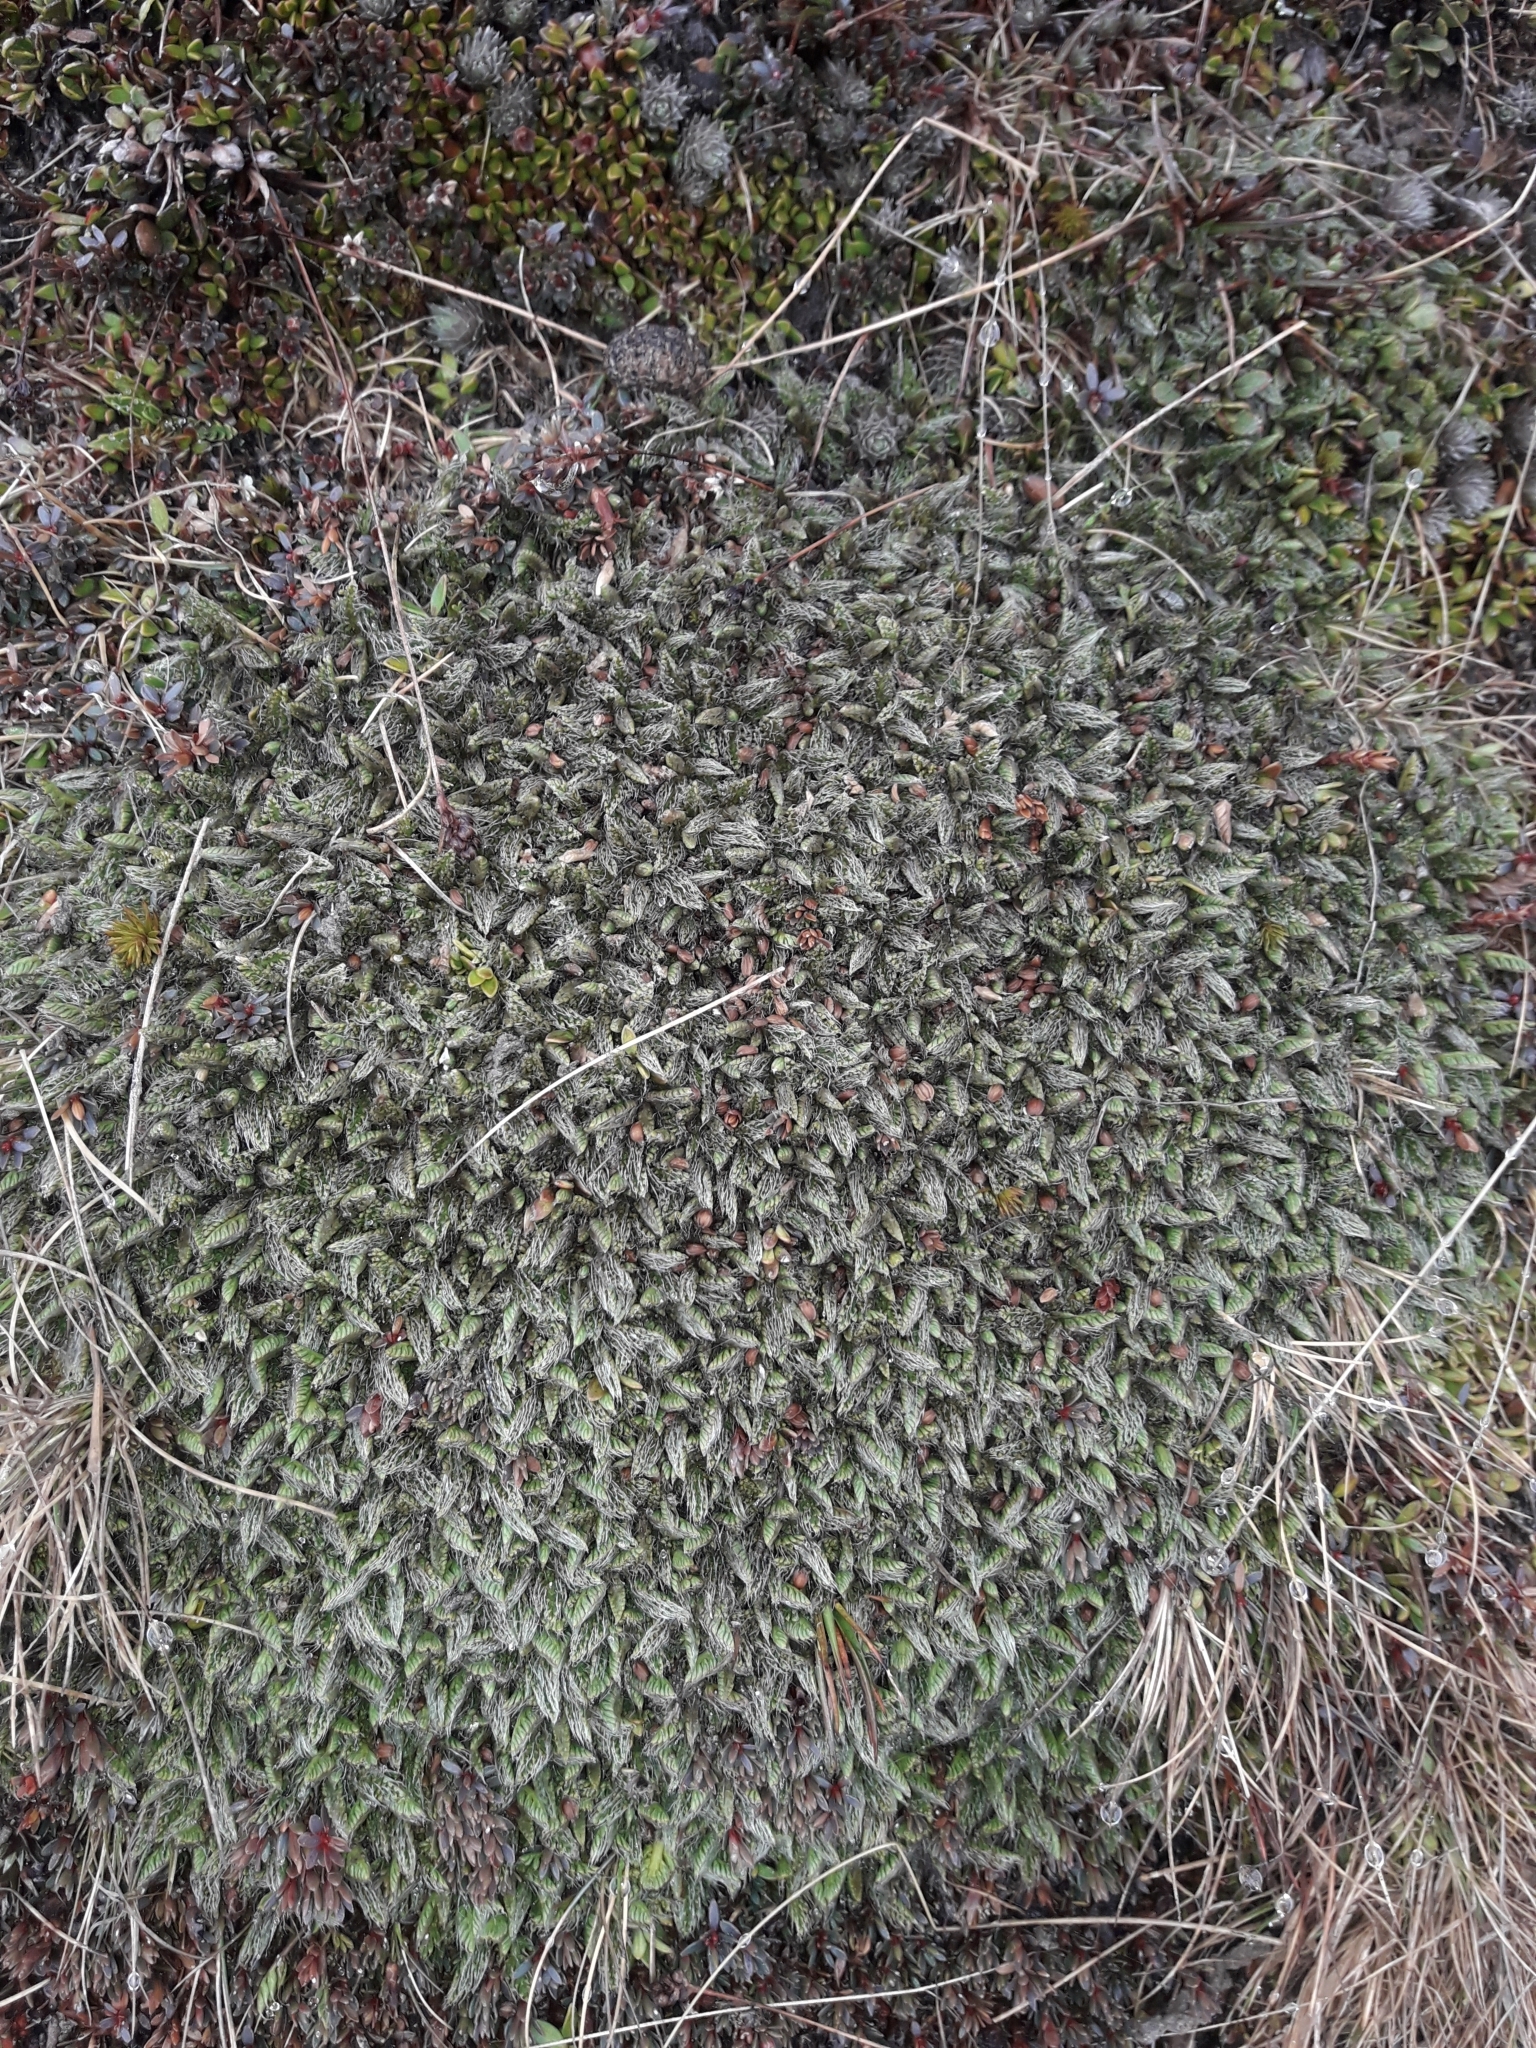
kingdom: Plantae
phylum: Tracheophyta
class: Magnoliopsida
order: Apiales
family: Apiaceae
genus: Anisotome
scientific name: Anisotome imbricata
